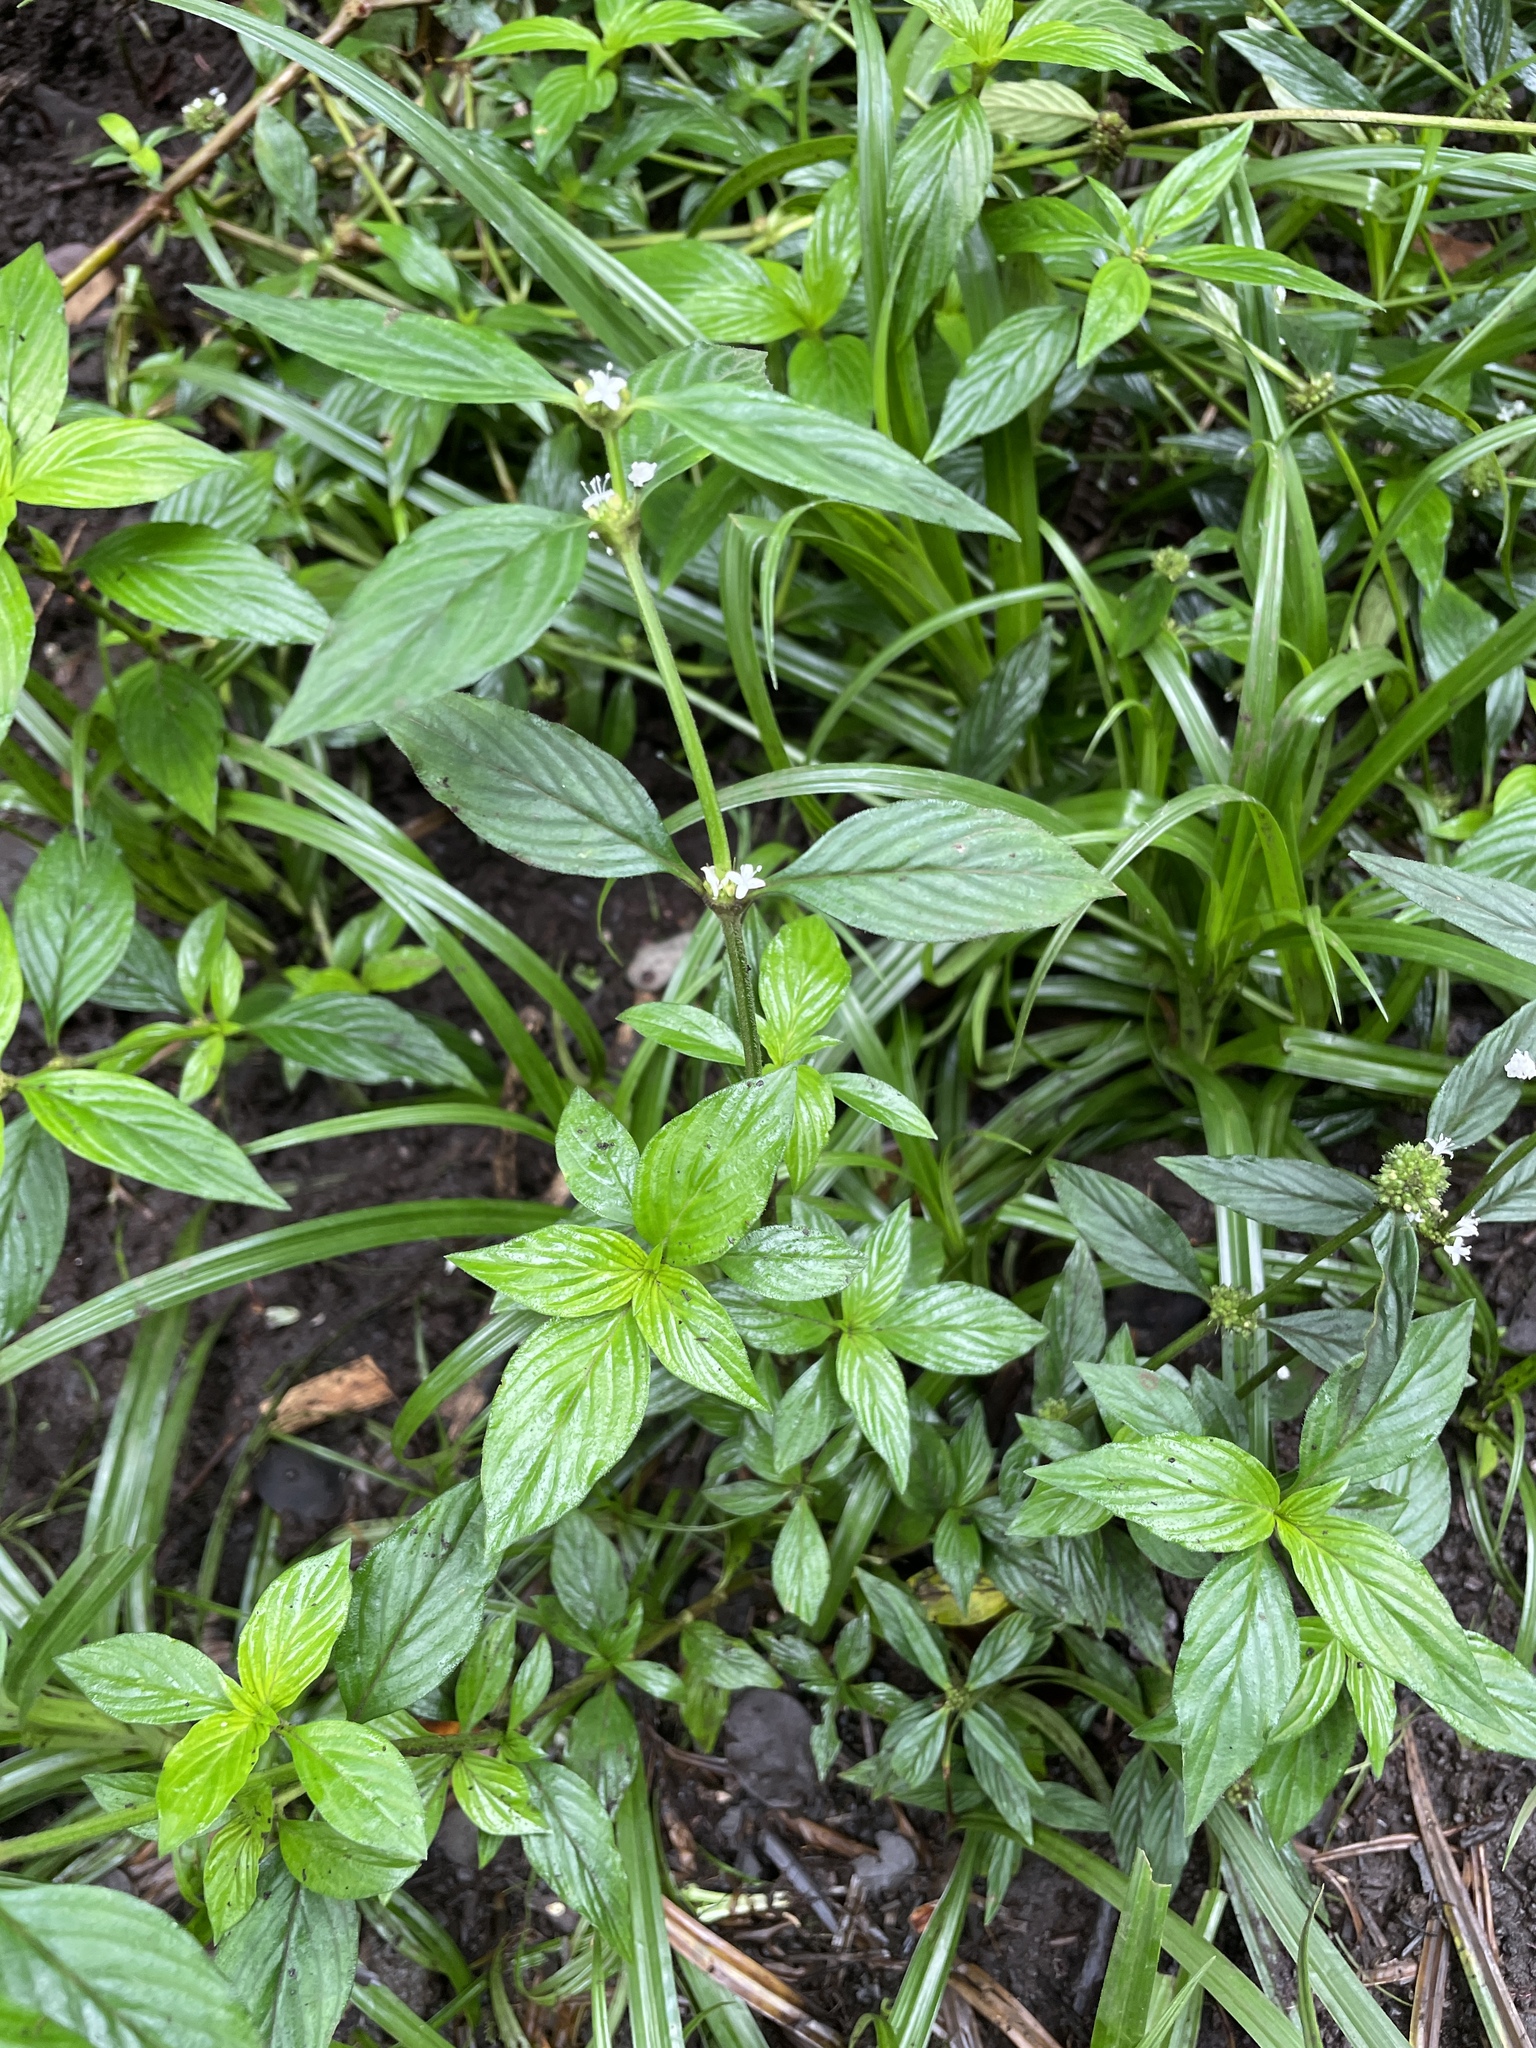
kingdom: Plantae
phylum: Tracheophyta
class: Magnoliopsida
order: Gentianales
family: Rubiaceae
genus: Spermacoce
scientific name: Spermacoce remota
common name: Woodland false buttonweed
